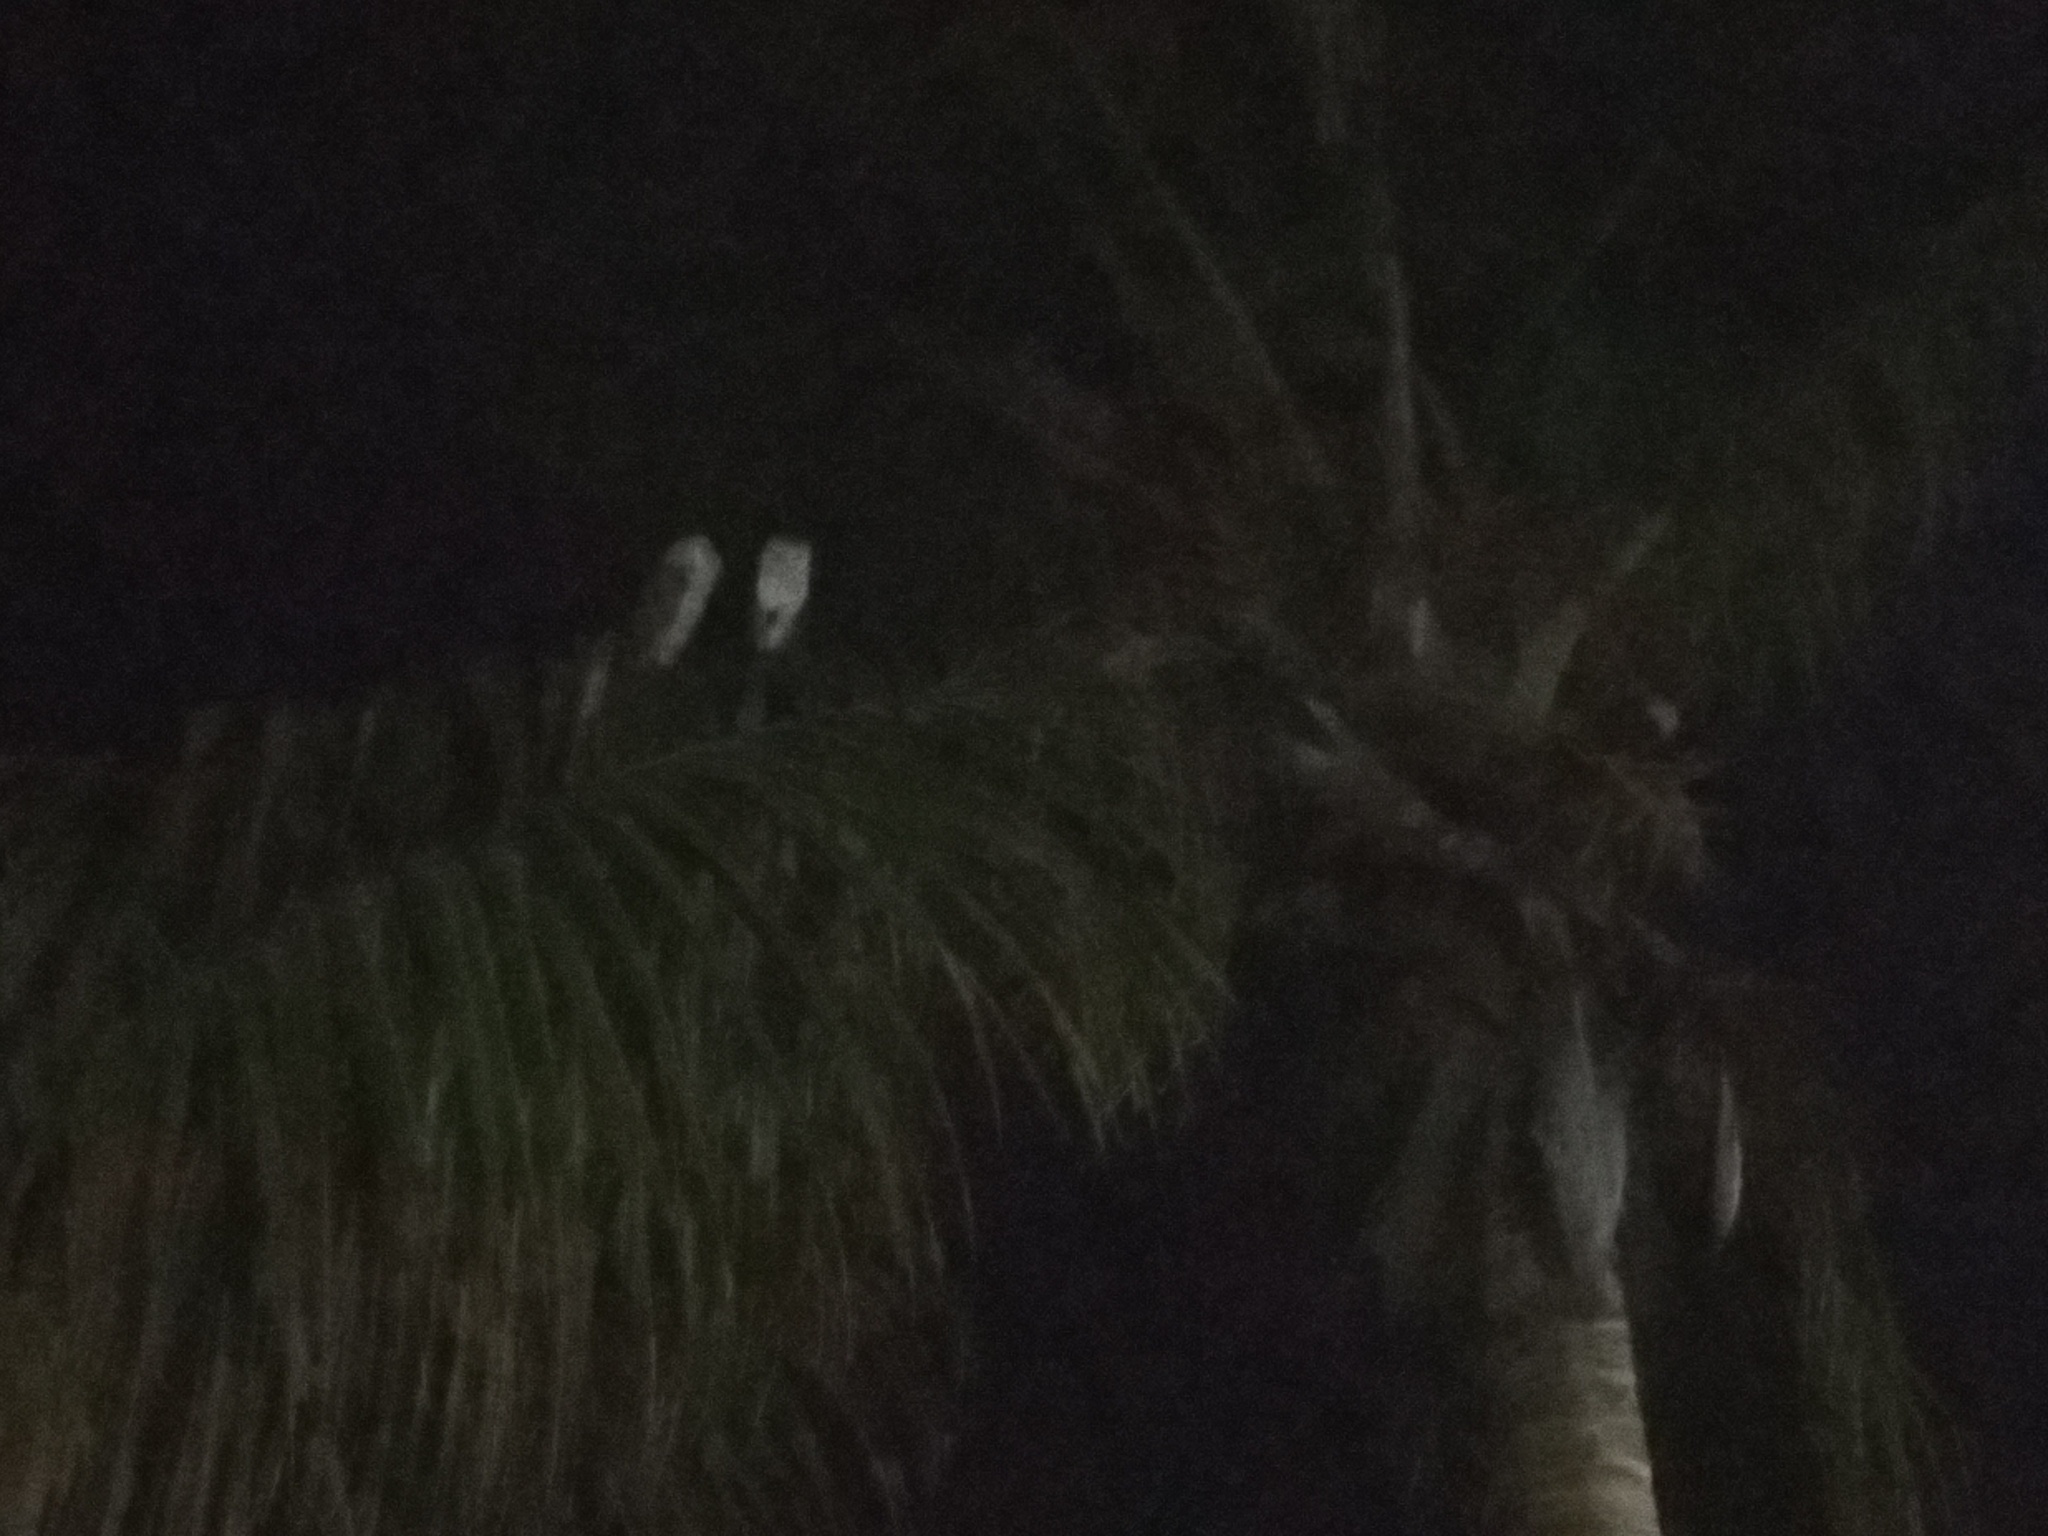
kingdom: Animalia
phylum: Chordata
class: Aves
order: Strigiformes
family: Tytonidae
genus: Tyto
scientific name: Tyto alba
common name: Barn owl
